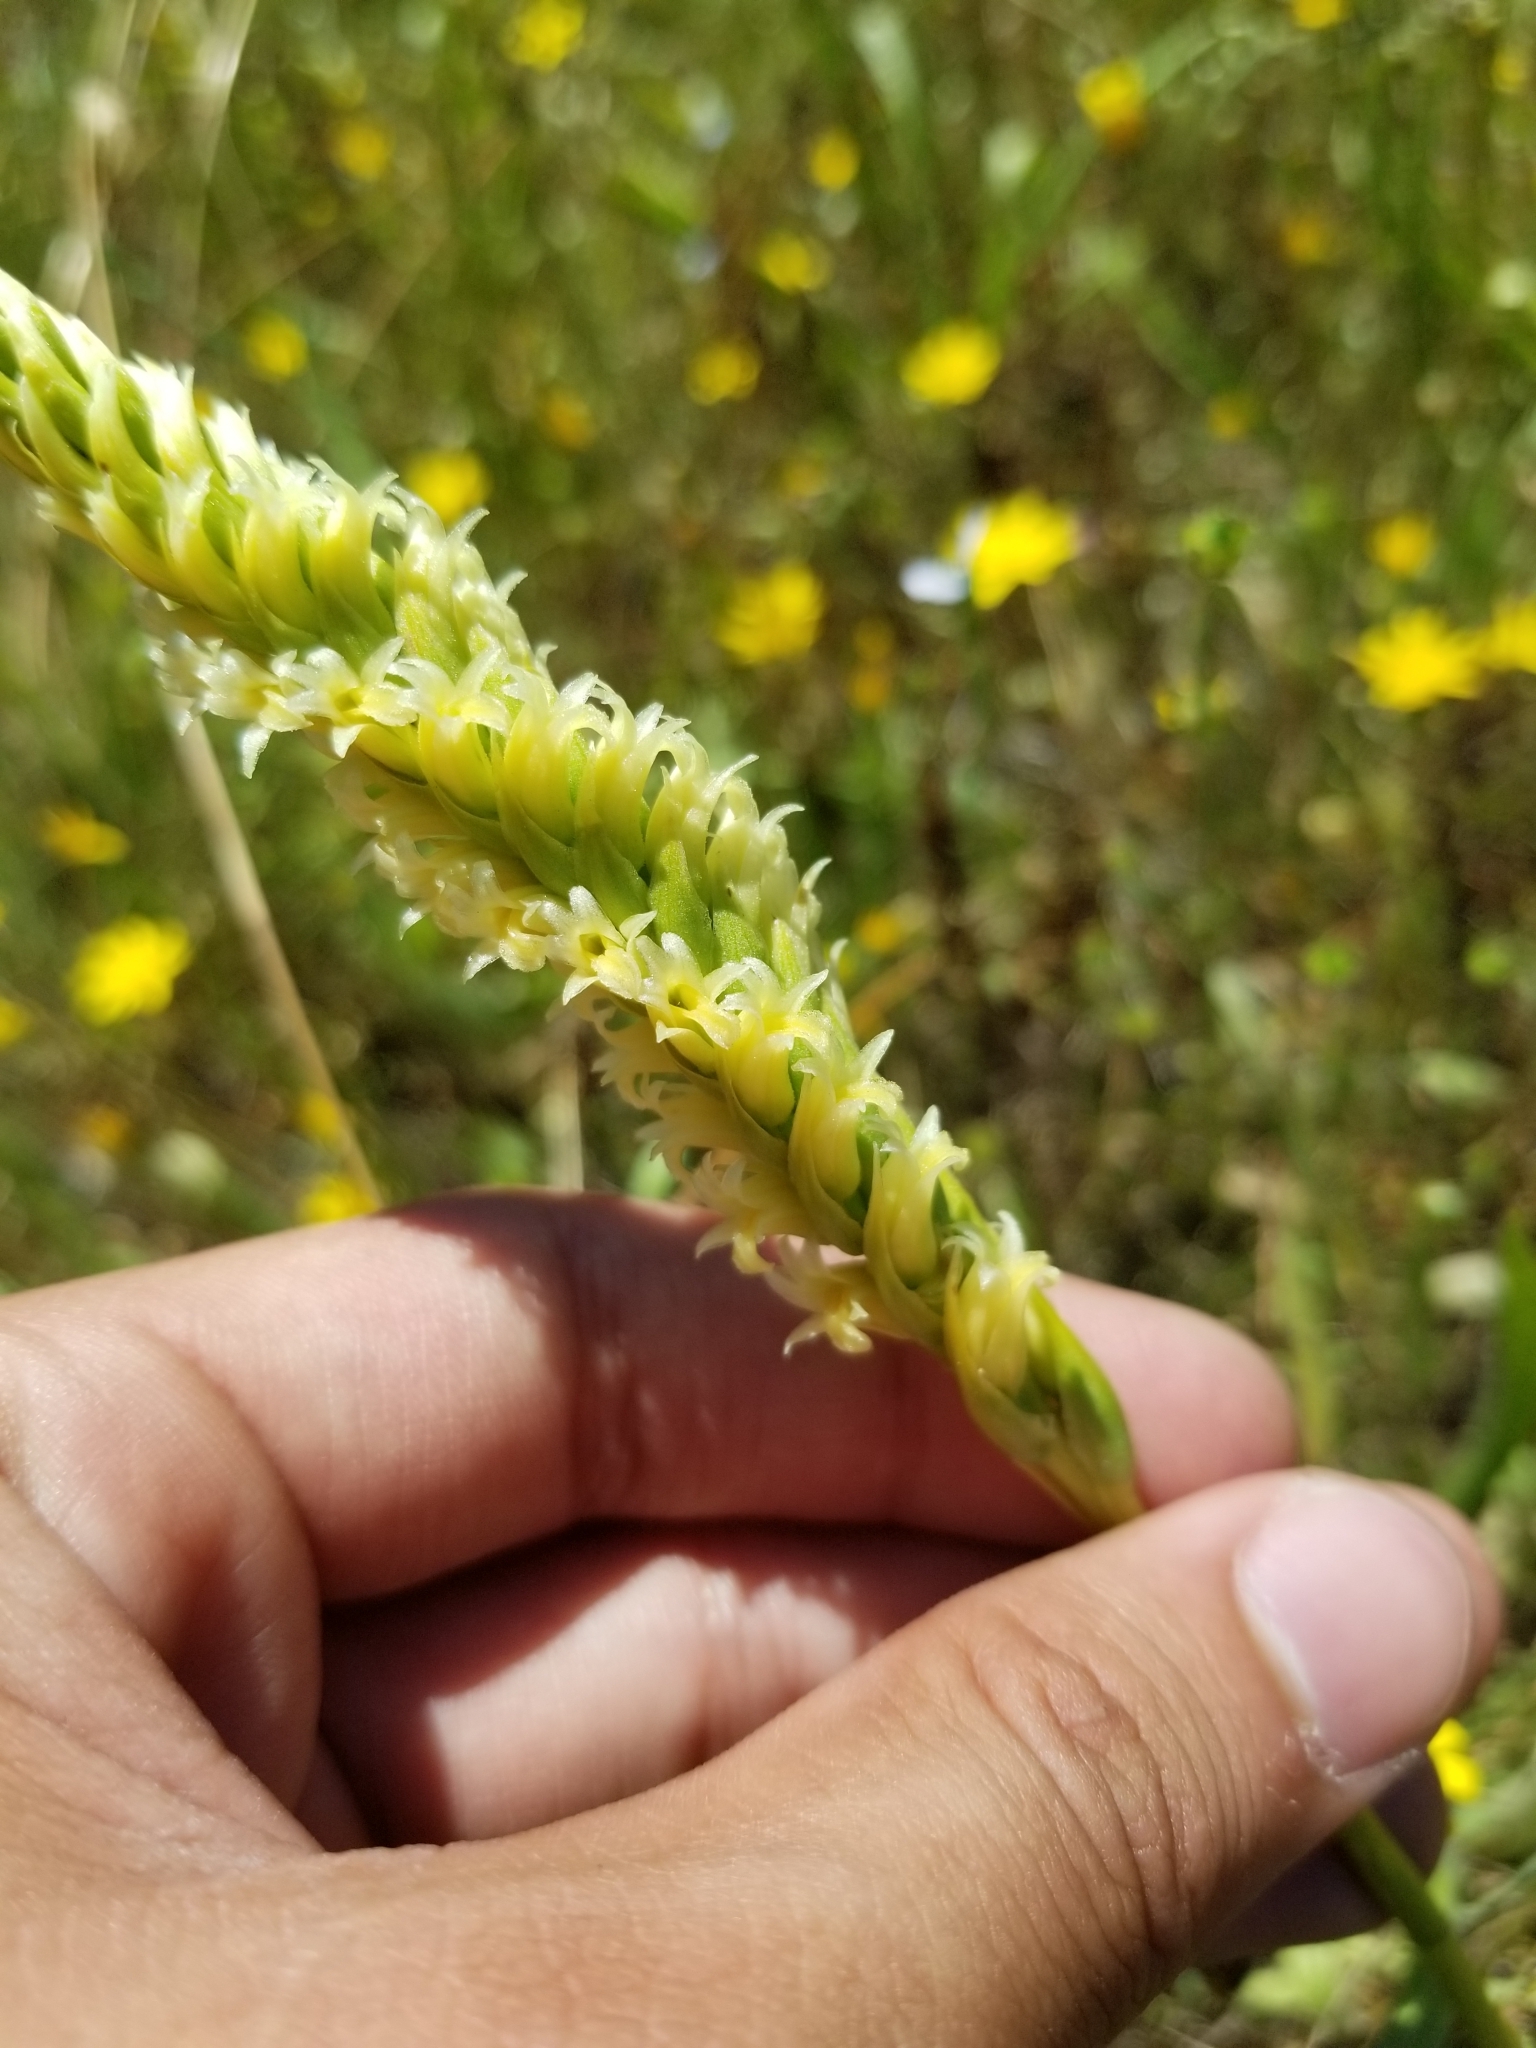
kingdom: Plantae
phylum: Tracheophyta
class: Liliopsida
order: Asparagales
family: Orchidaceae
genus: Spiranthes
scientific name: Spiranthes porrifolia
